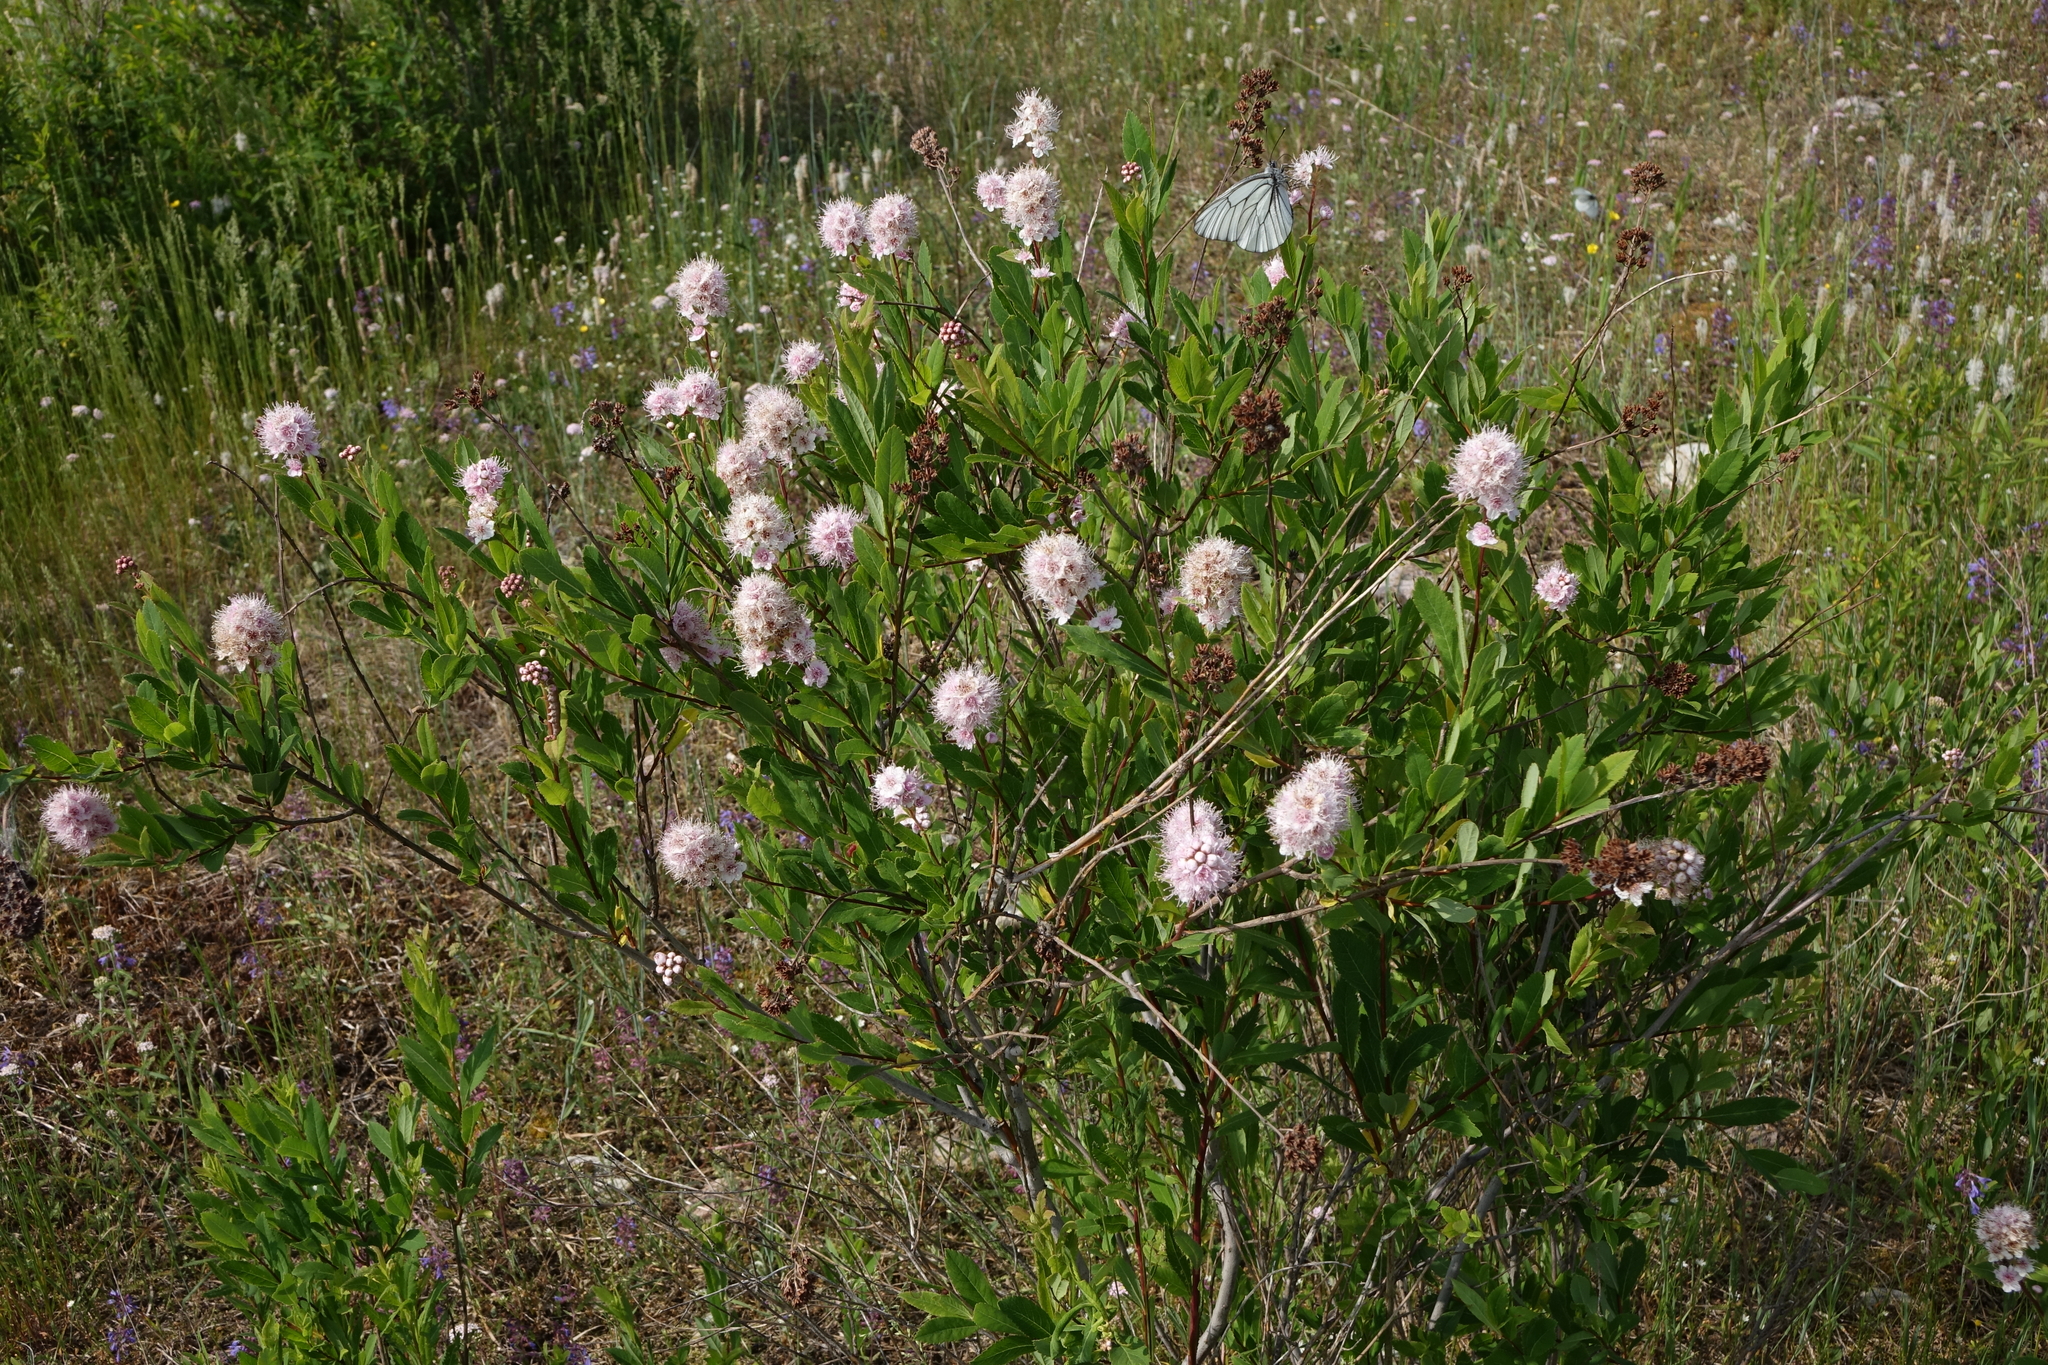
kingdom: Plantae
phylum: Tracheophyta
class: Magnoliopsida
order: Rosales
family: Rosaceae
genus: Spiraea
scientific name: Spiraea salicifolia
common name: Bridewort
